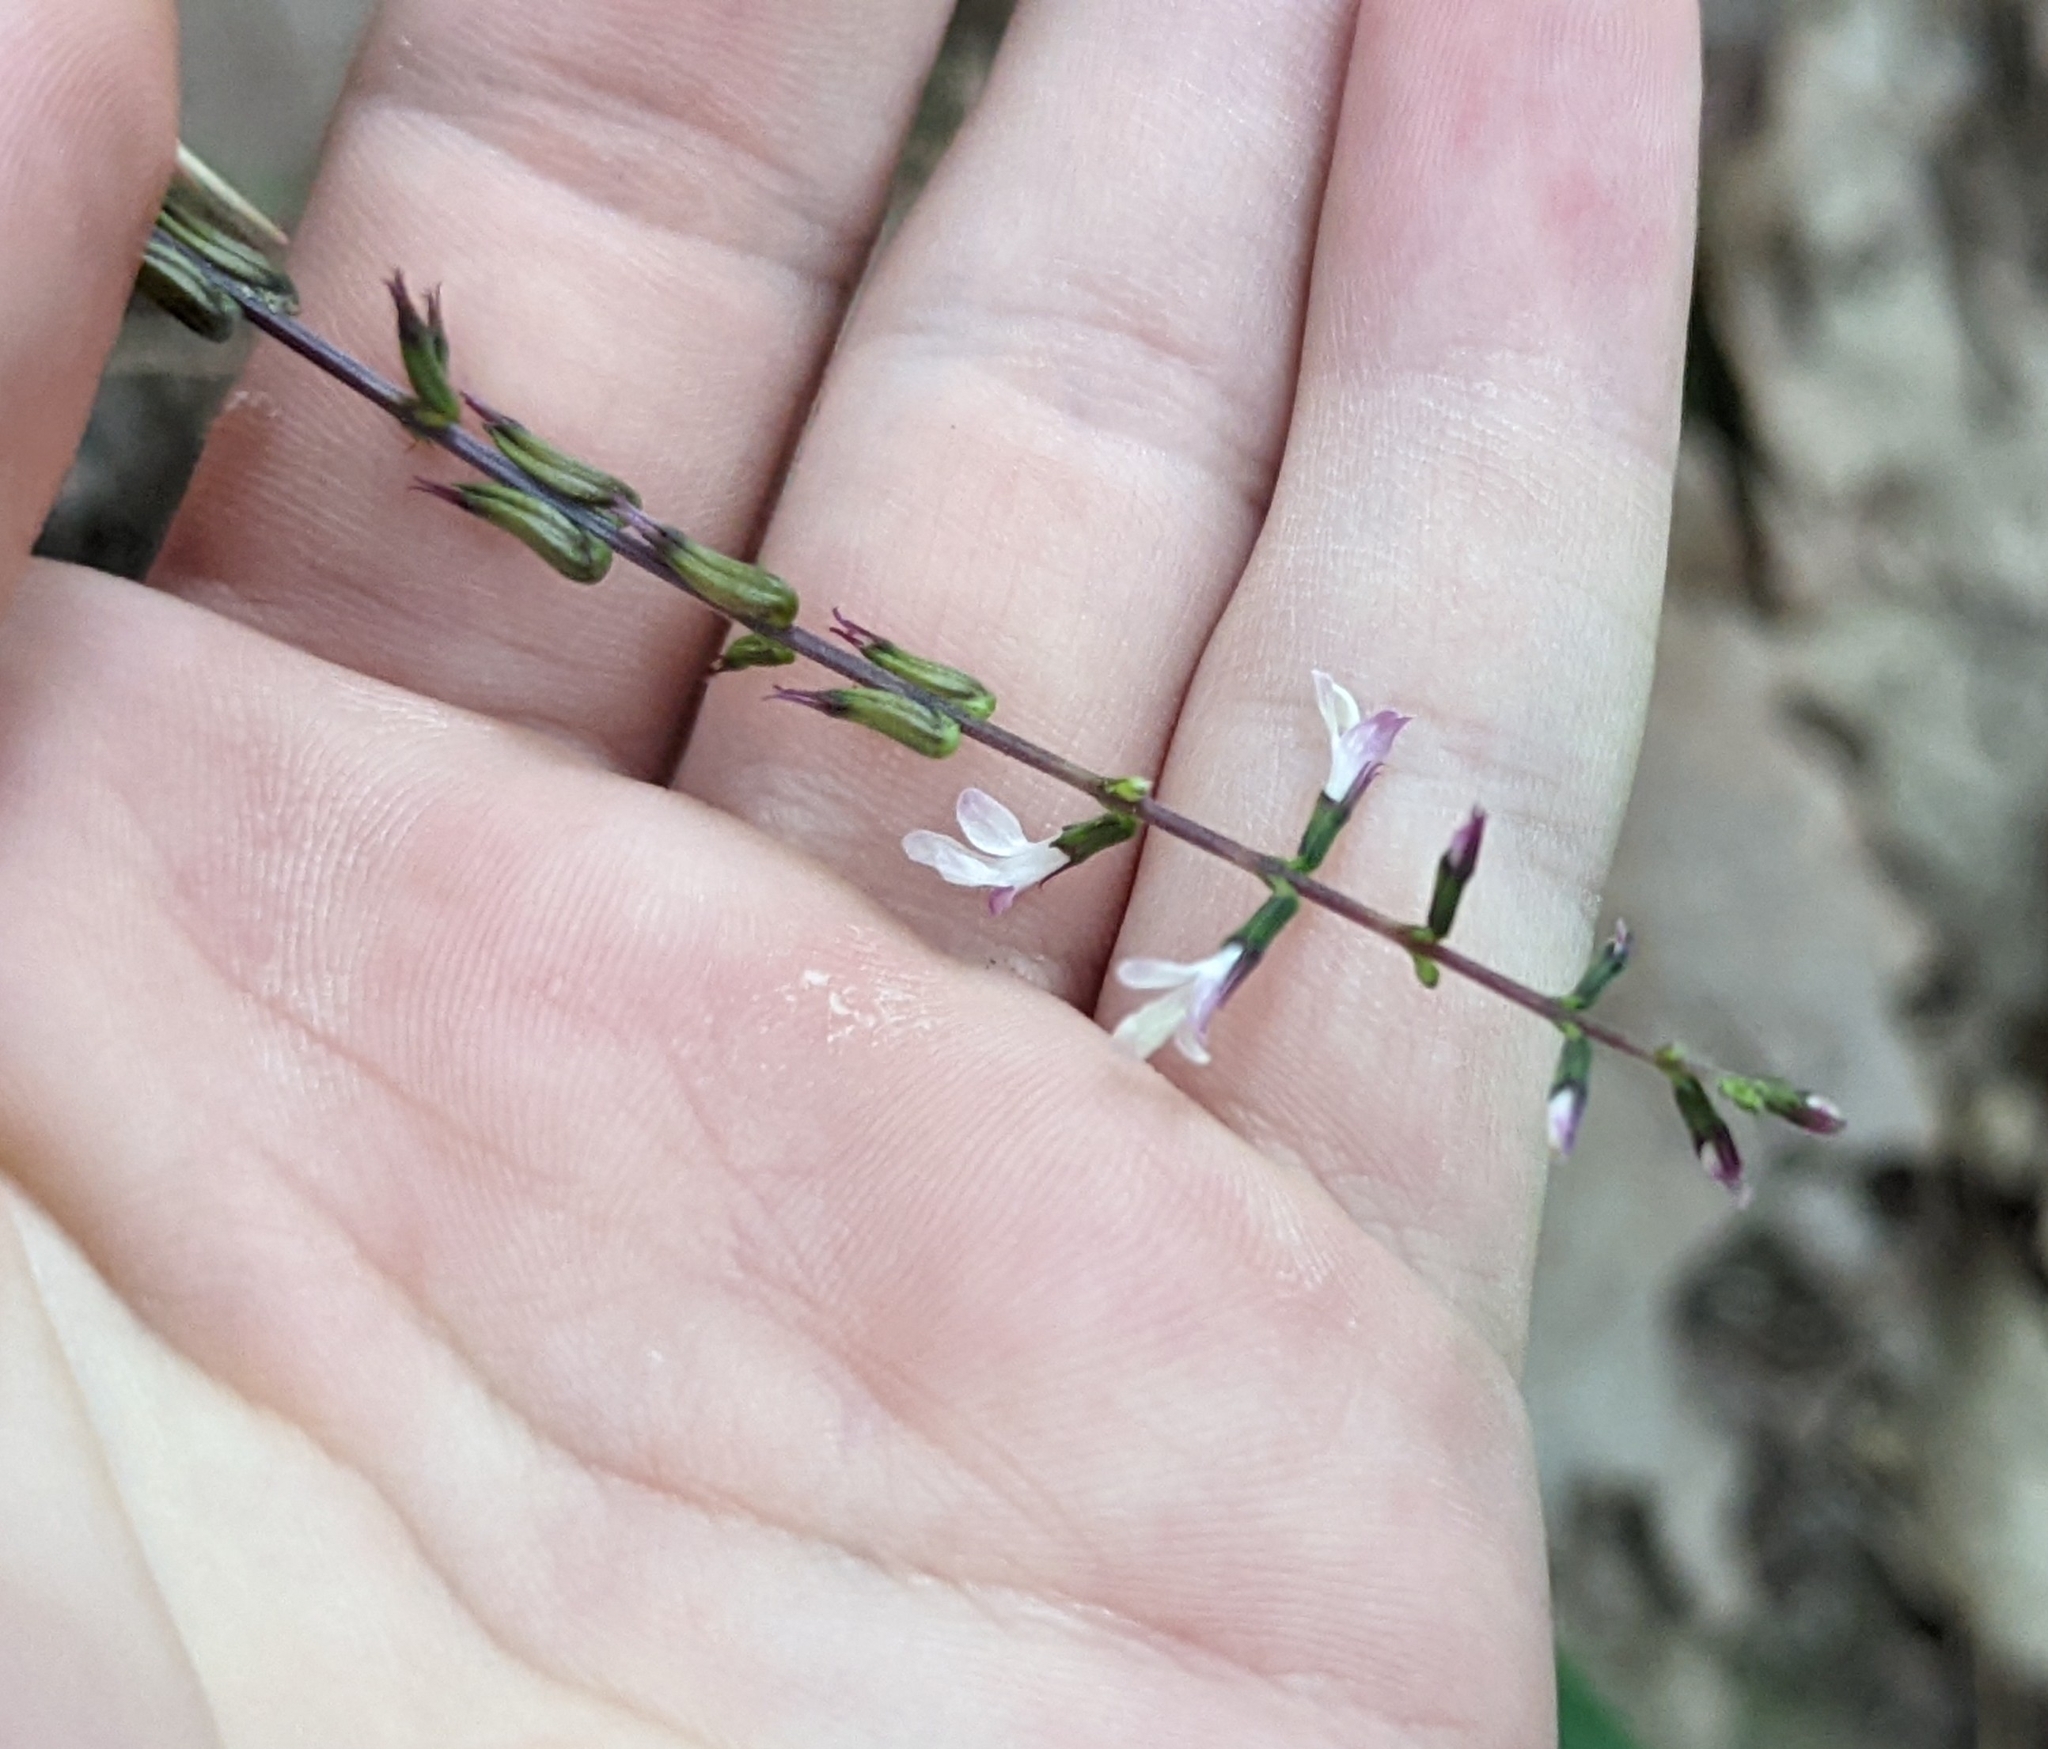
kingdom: Plantae
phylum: Tracheophyta
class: Magnoliopsida
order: Lamiales
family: Phrymaceae
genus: Phryma
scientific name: Phryma leptostachya
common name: American lopseed
